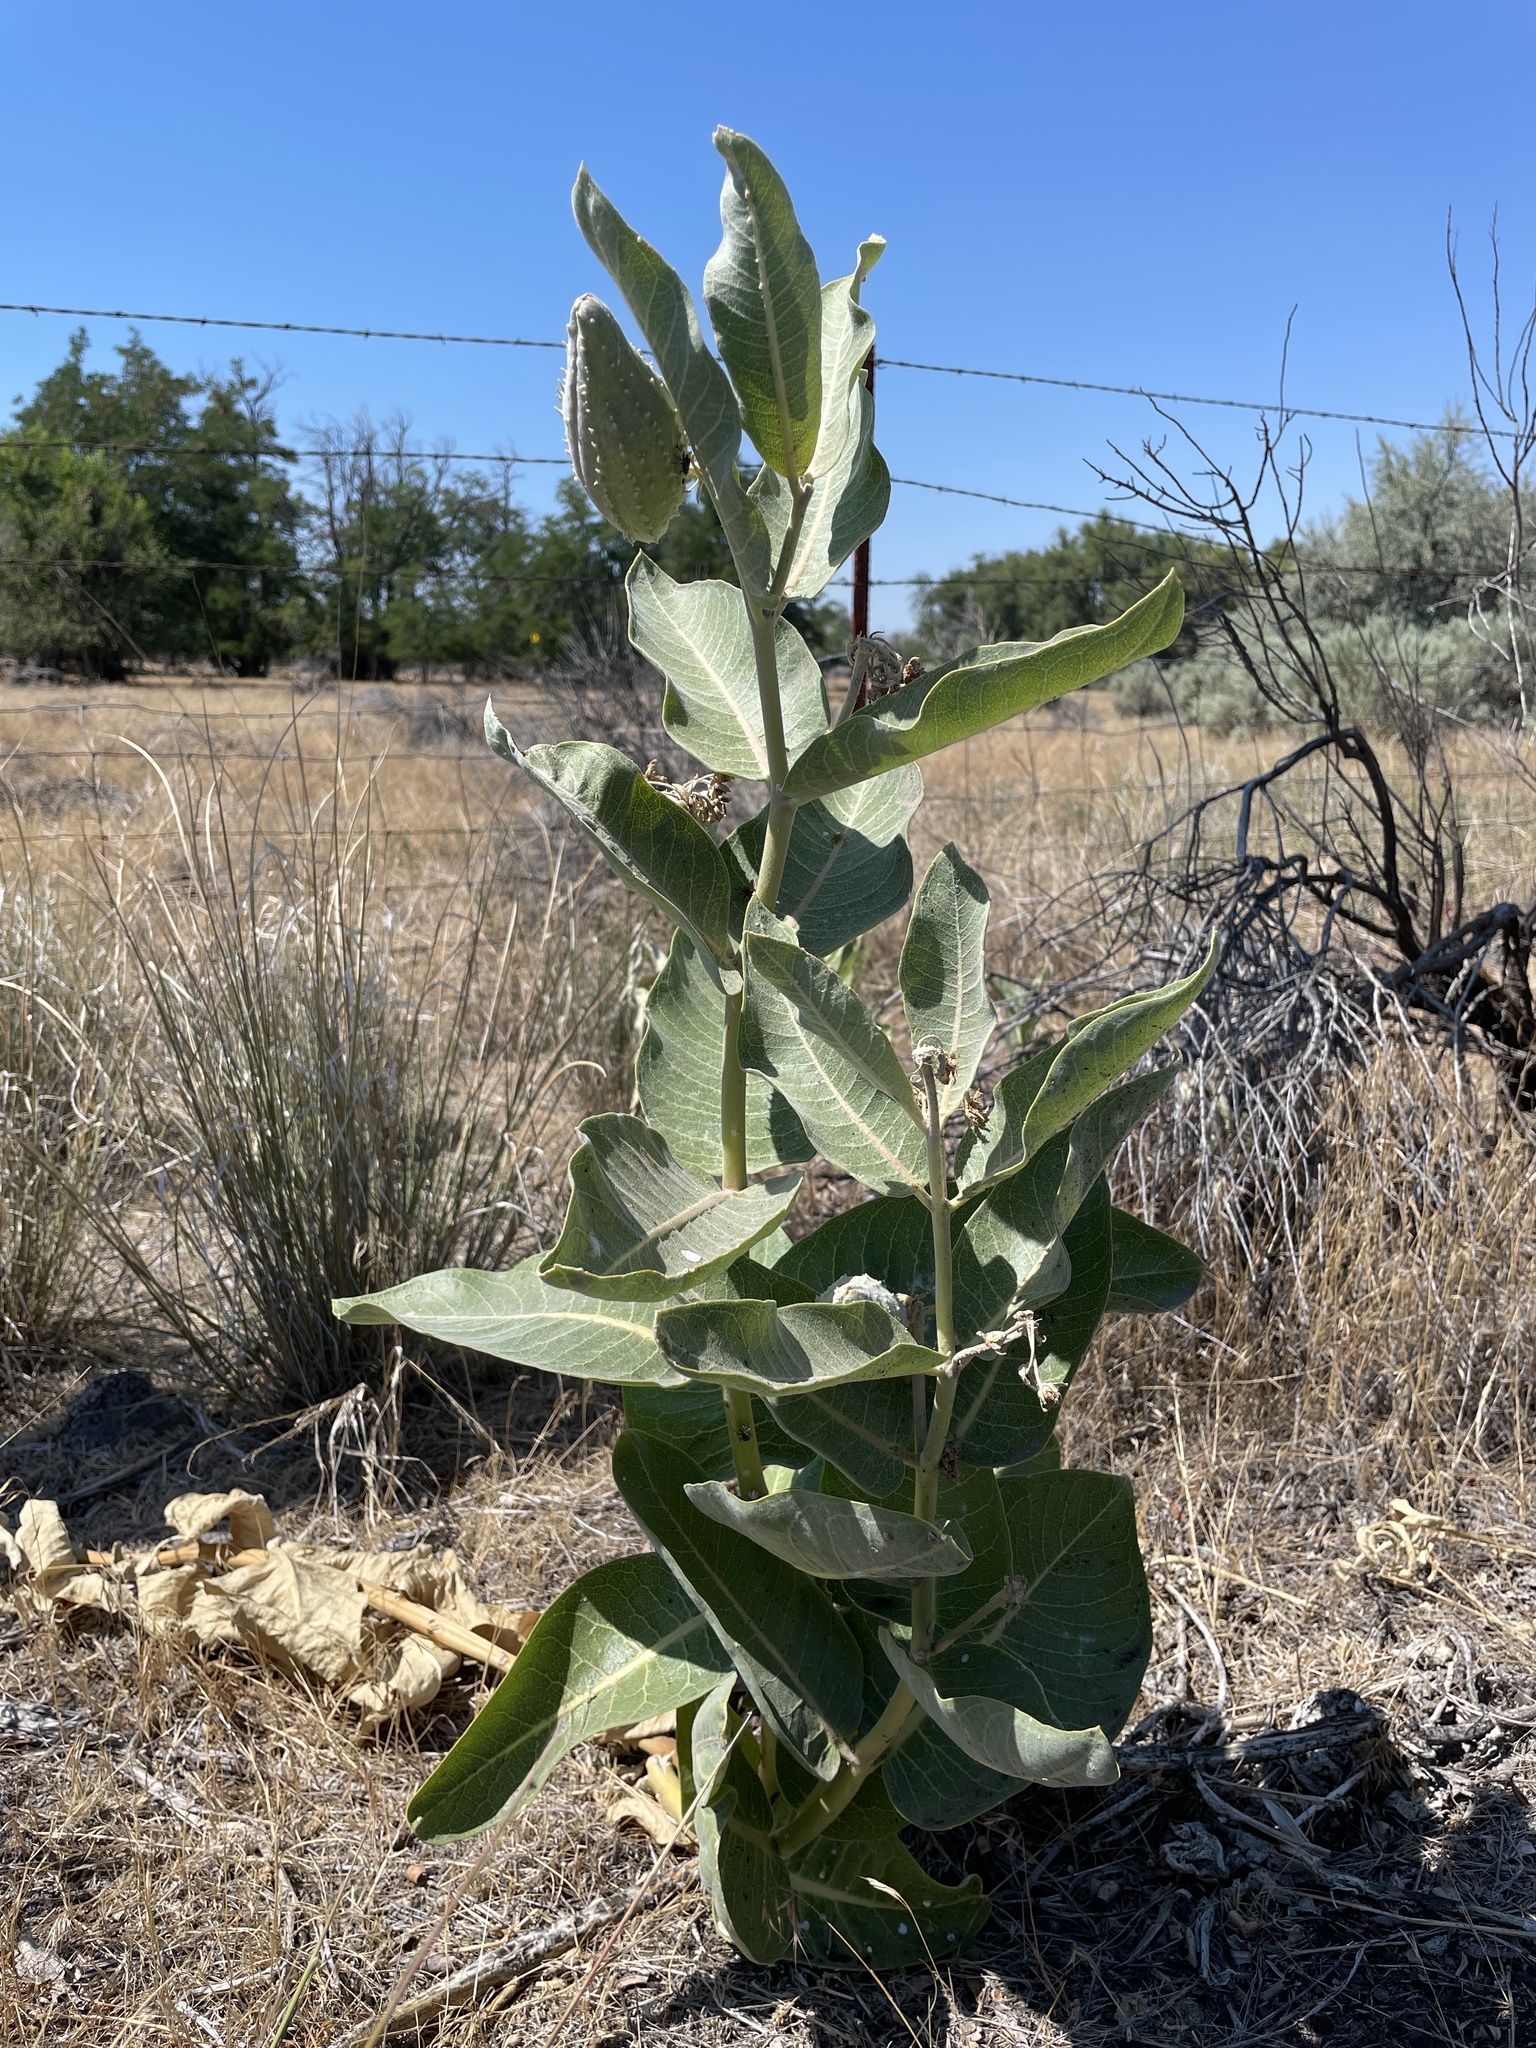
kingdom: Plantae
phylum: Tracheophyta
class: Magnoliopsida
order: Gentianales
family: Apocynaceae
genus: Asclepias
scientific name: Asclepias speciosa
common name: Showy milkweed
